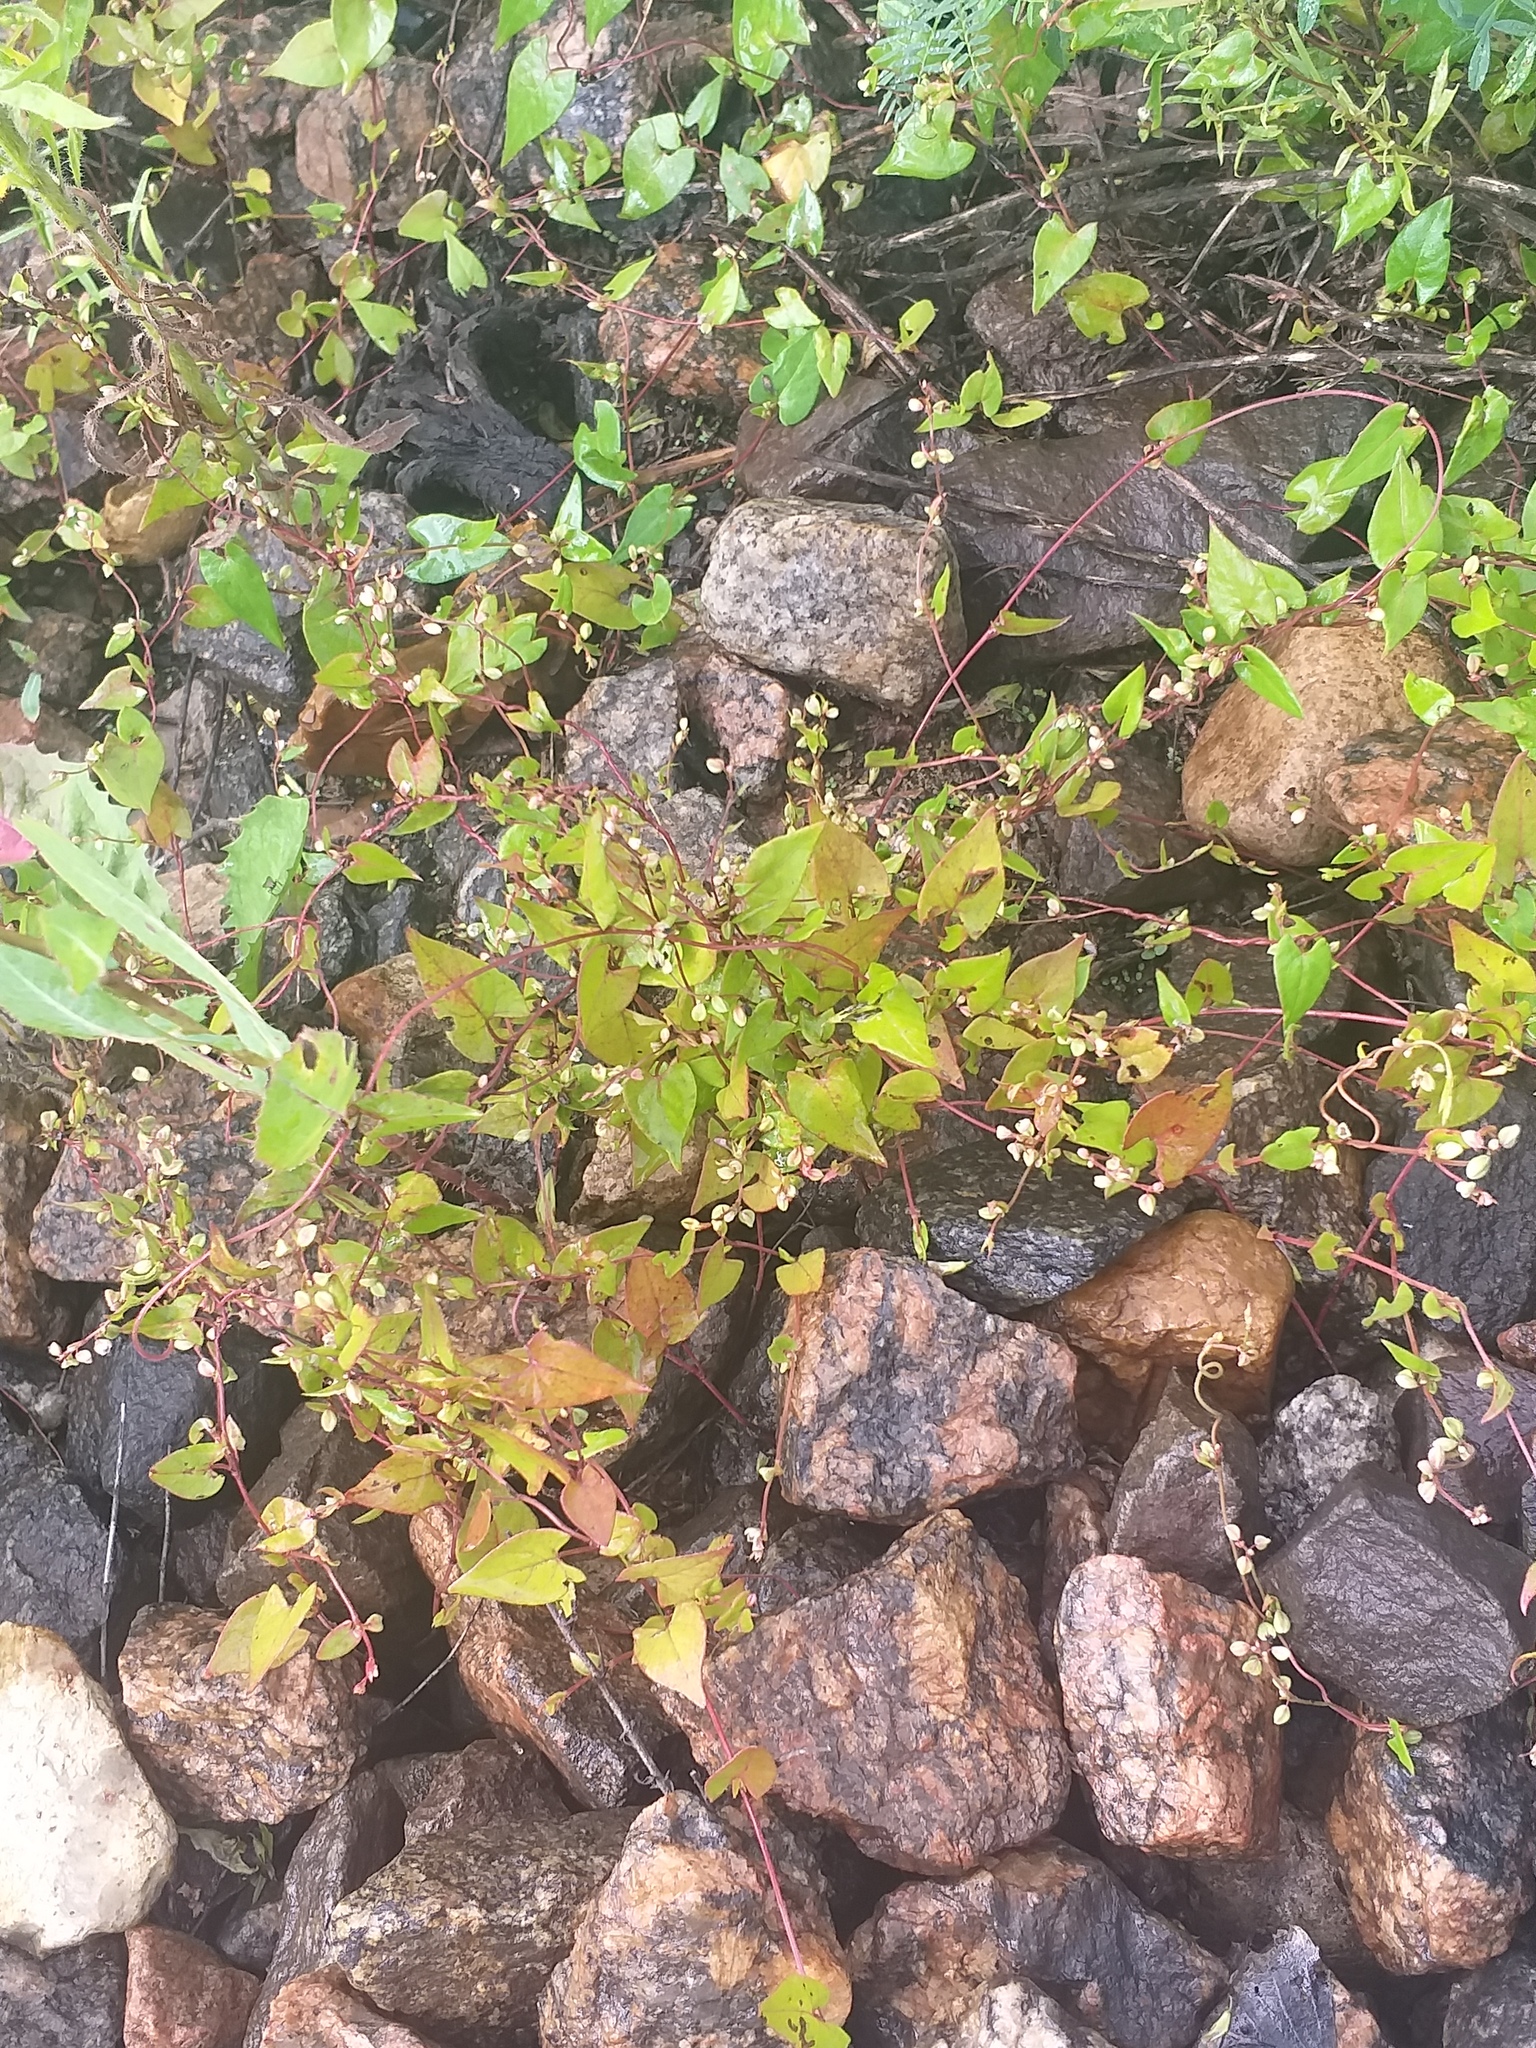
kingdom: Plantae
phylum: Tracheophyta
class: Magnoliopsida
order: Caryophyllales
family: Polygonaceae
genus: Fallopia
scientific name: Fallopia convolvulus
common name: Black bindweed
